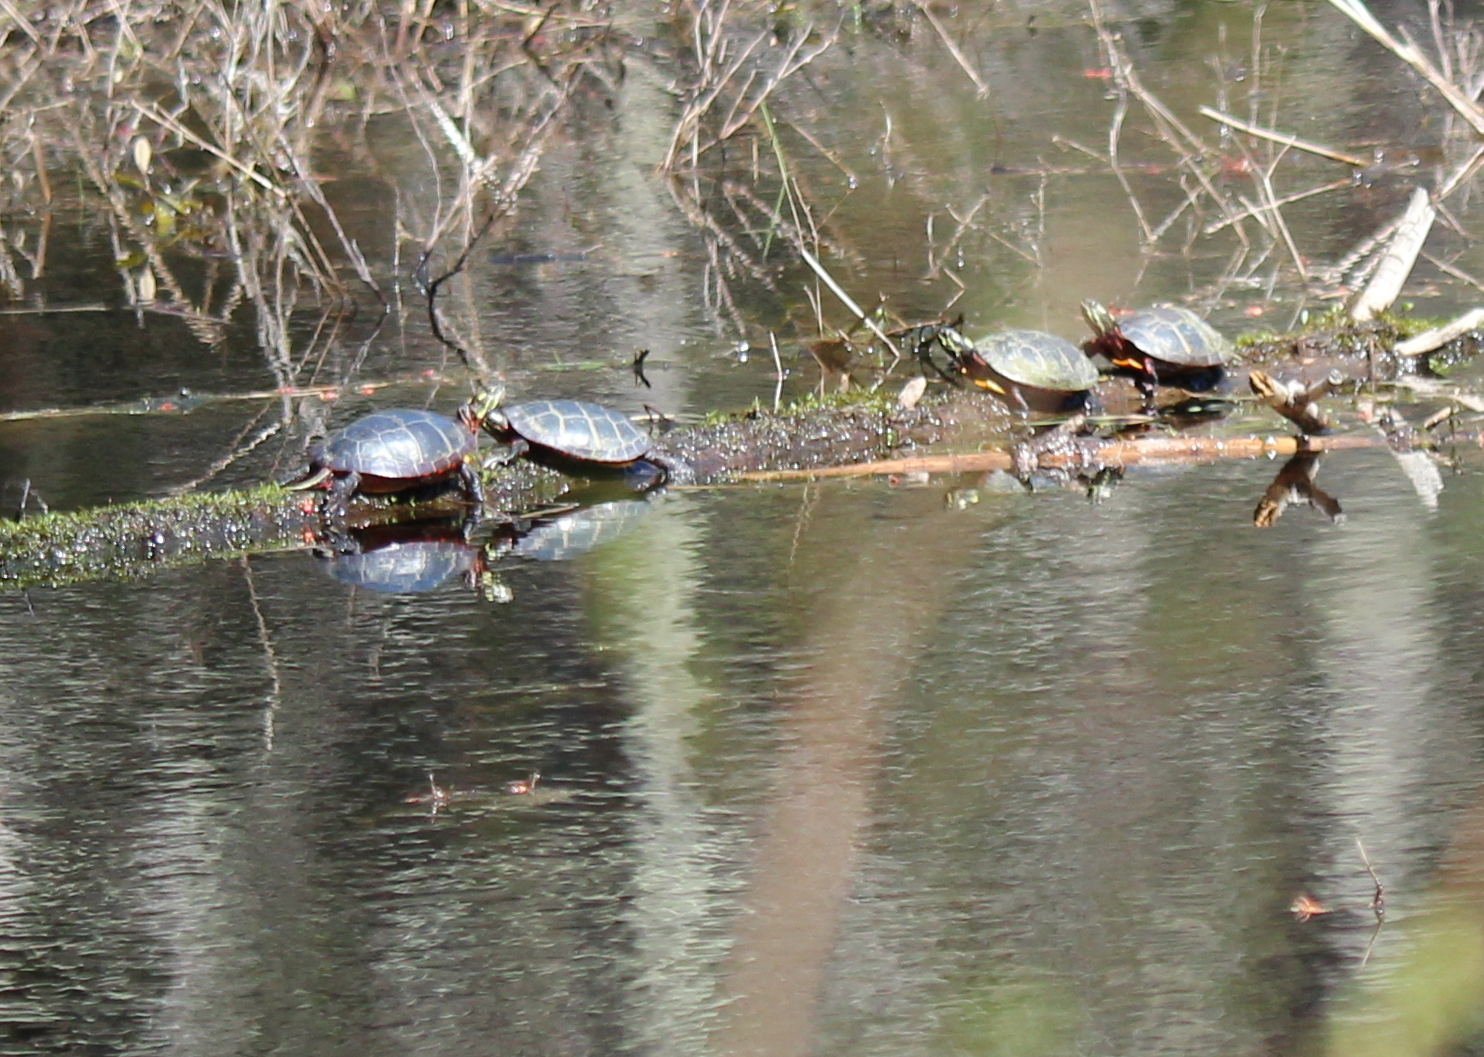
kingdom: Animalia
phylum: Chordata
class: Testudines
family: Emydidae
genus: Chrysemys
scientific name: Chrysemys picta
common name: Painted turtle
